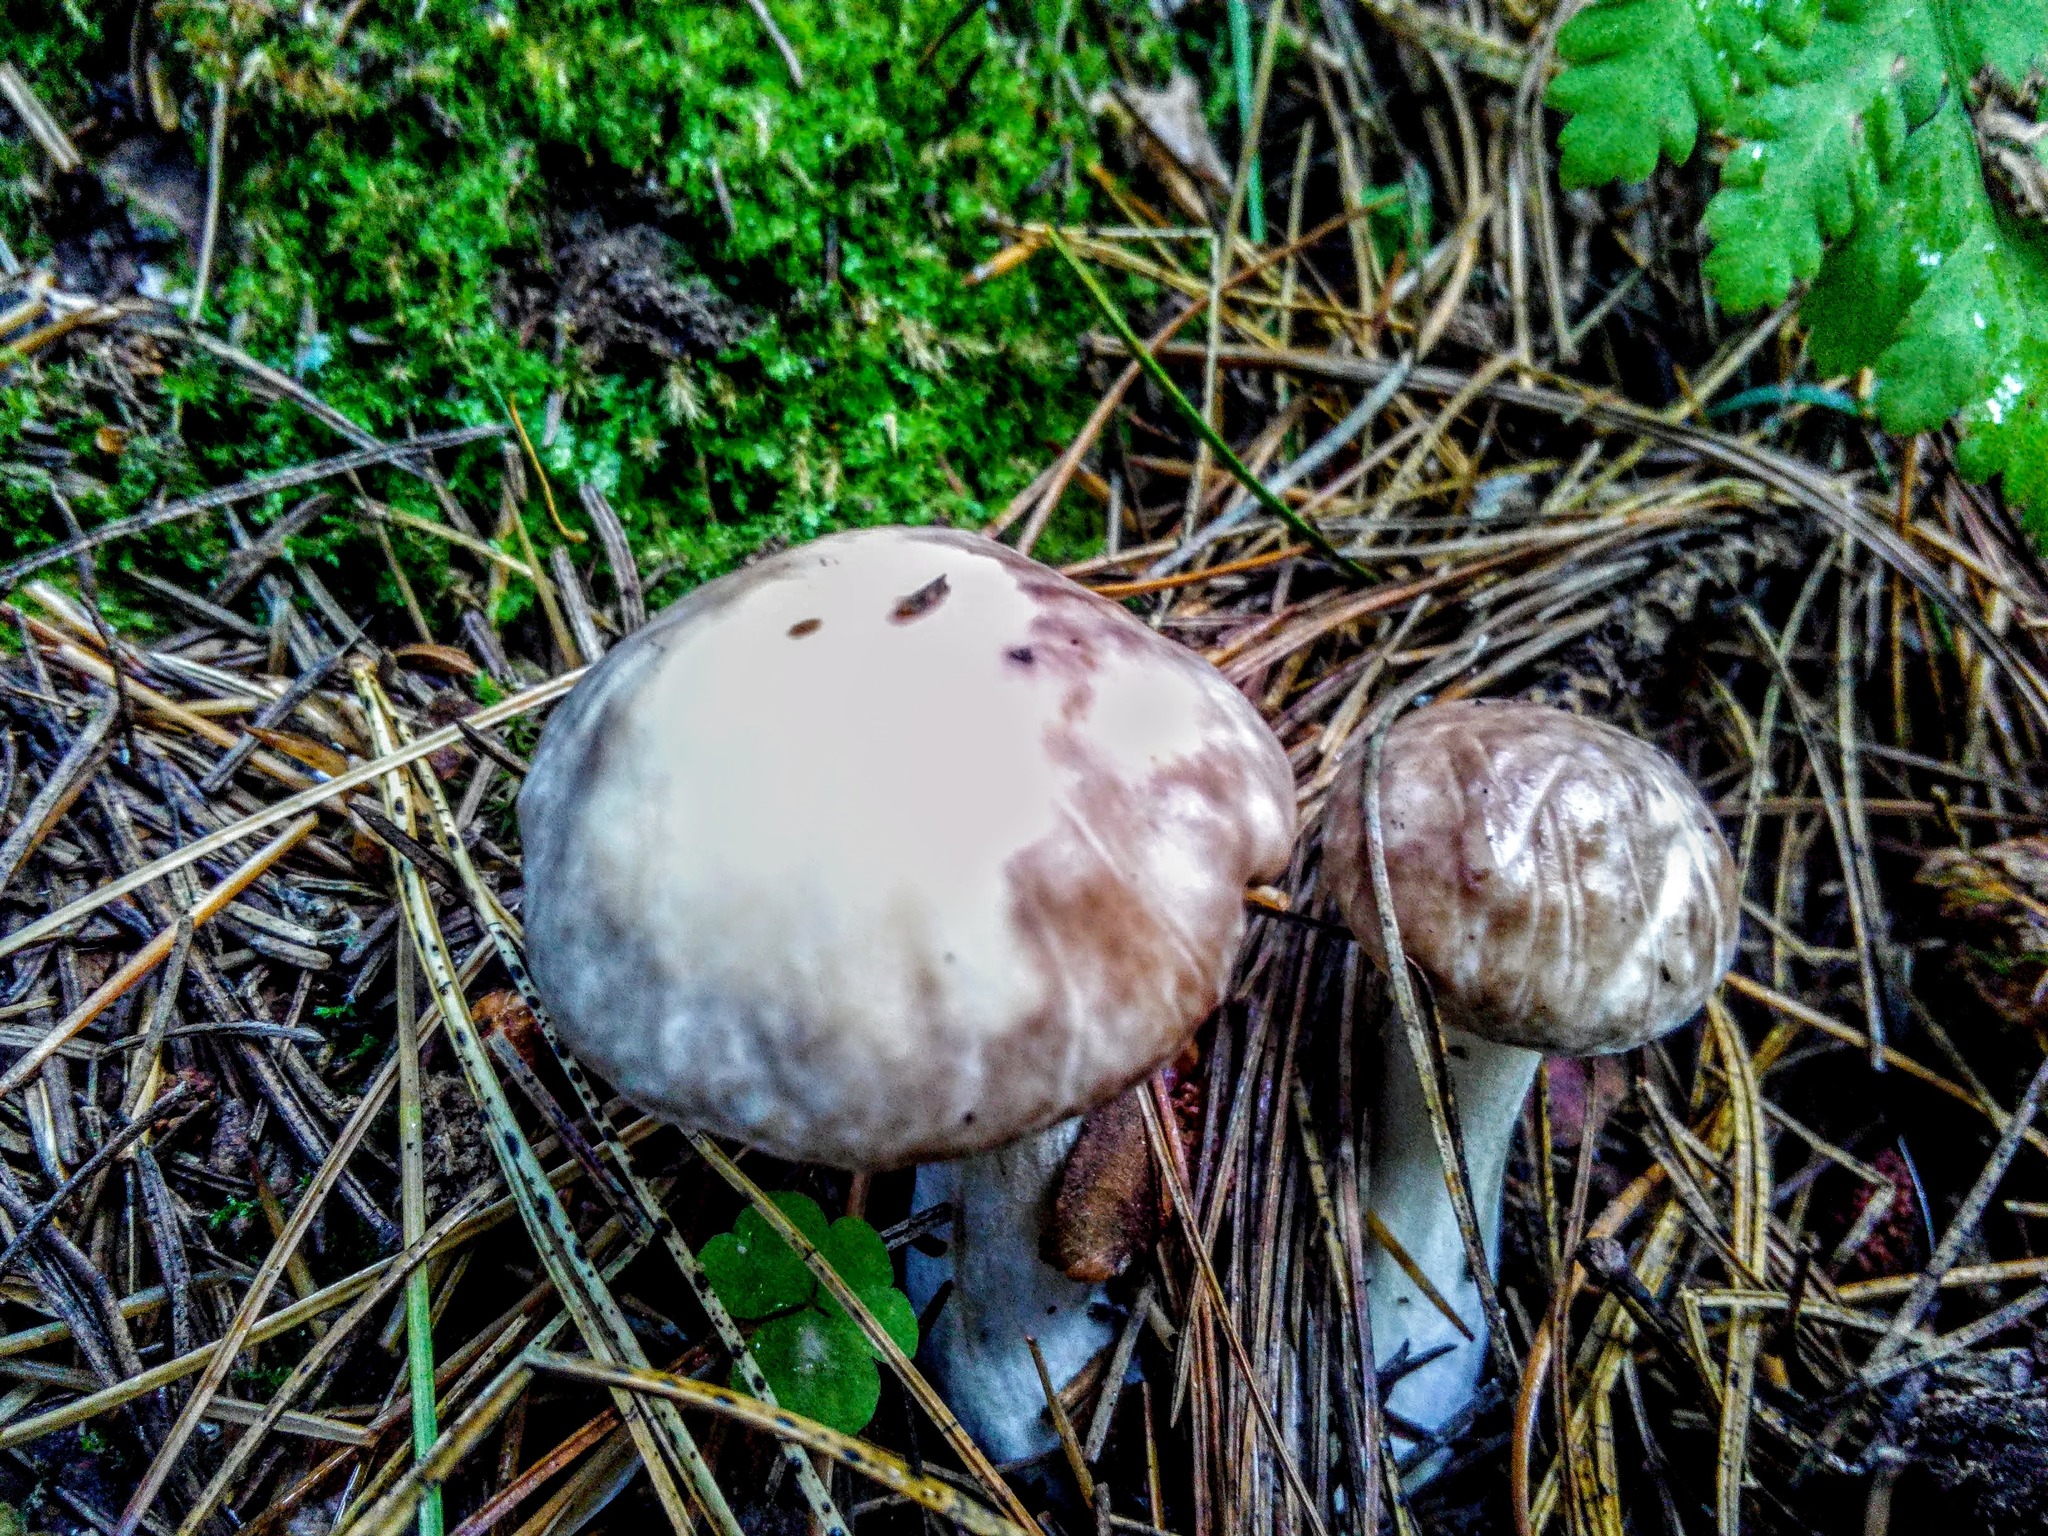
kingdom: Fungi
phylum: Basidiomycota
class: Agaricomycetes
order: Boletales
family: Suillaceae
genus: Suillus
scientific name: Suillus placidus
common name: Slippery white bolete
